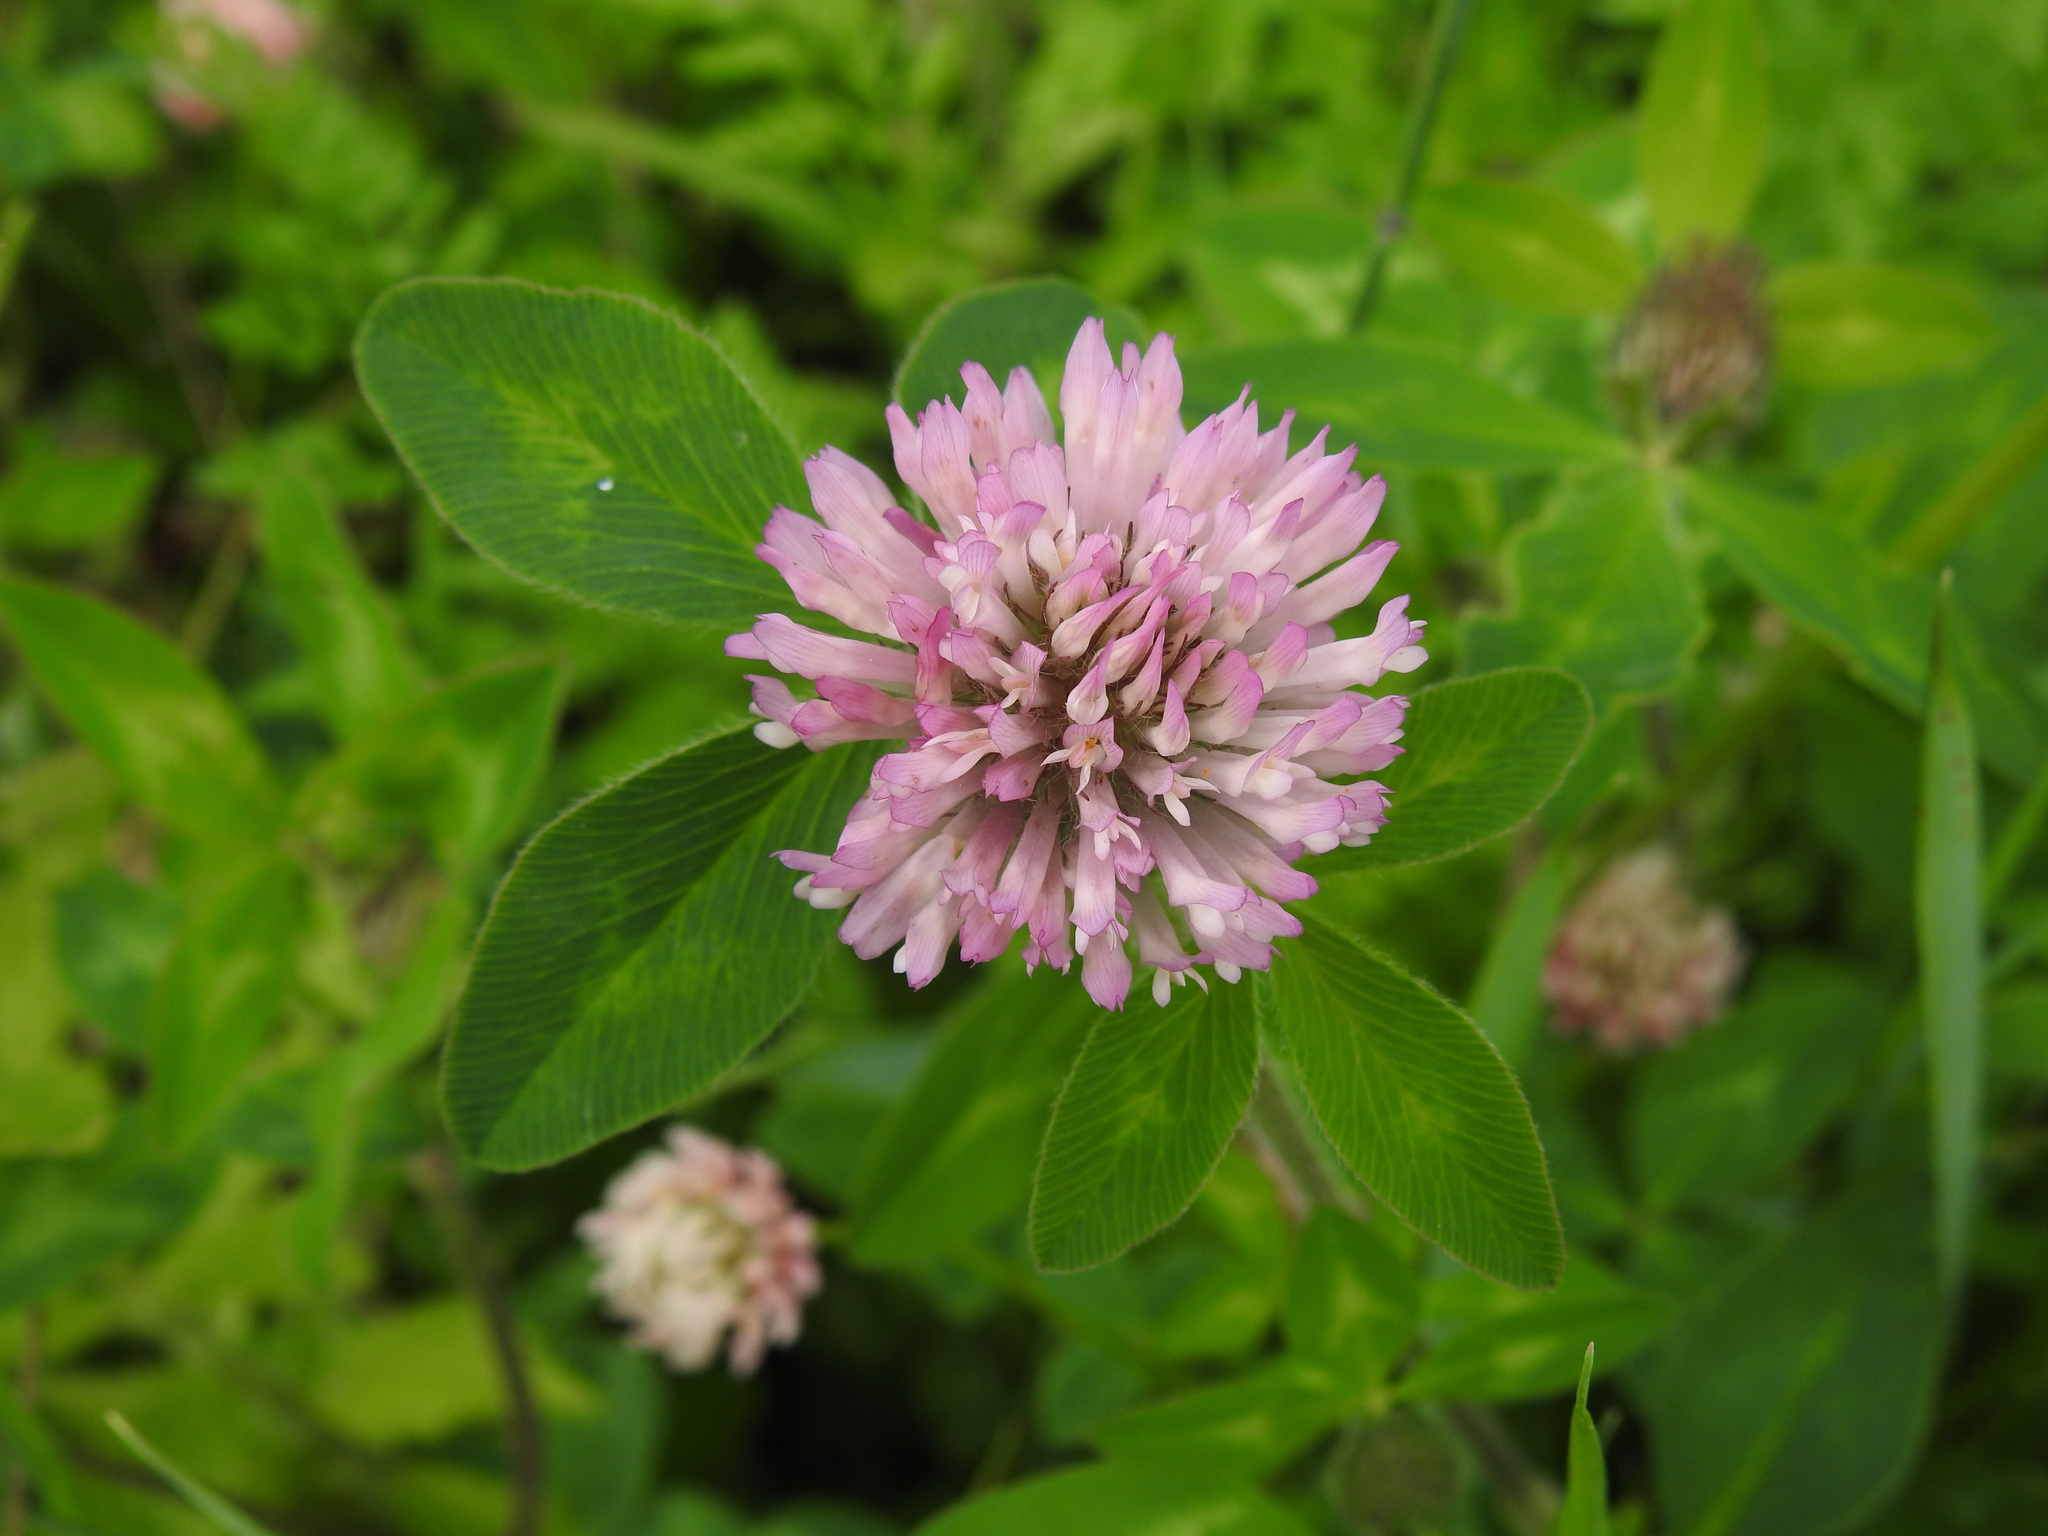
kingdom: Plantae
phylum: Tracheophyta
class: Magnoliopsida
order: Fabales
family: Fabaceae
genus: Trifolium
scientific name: Trifolium pratense
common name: Red clover
